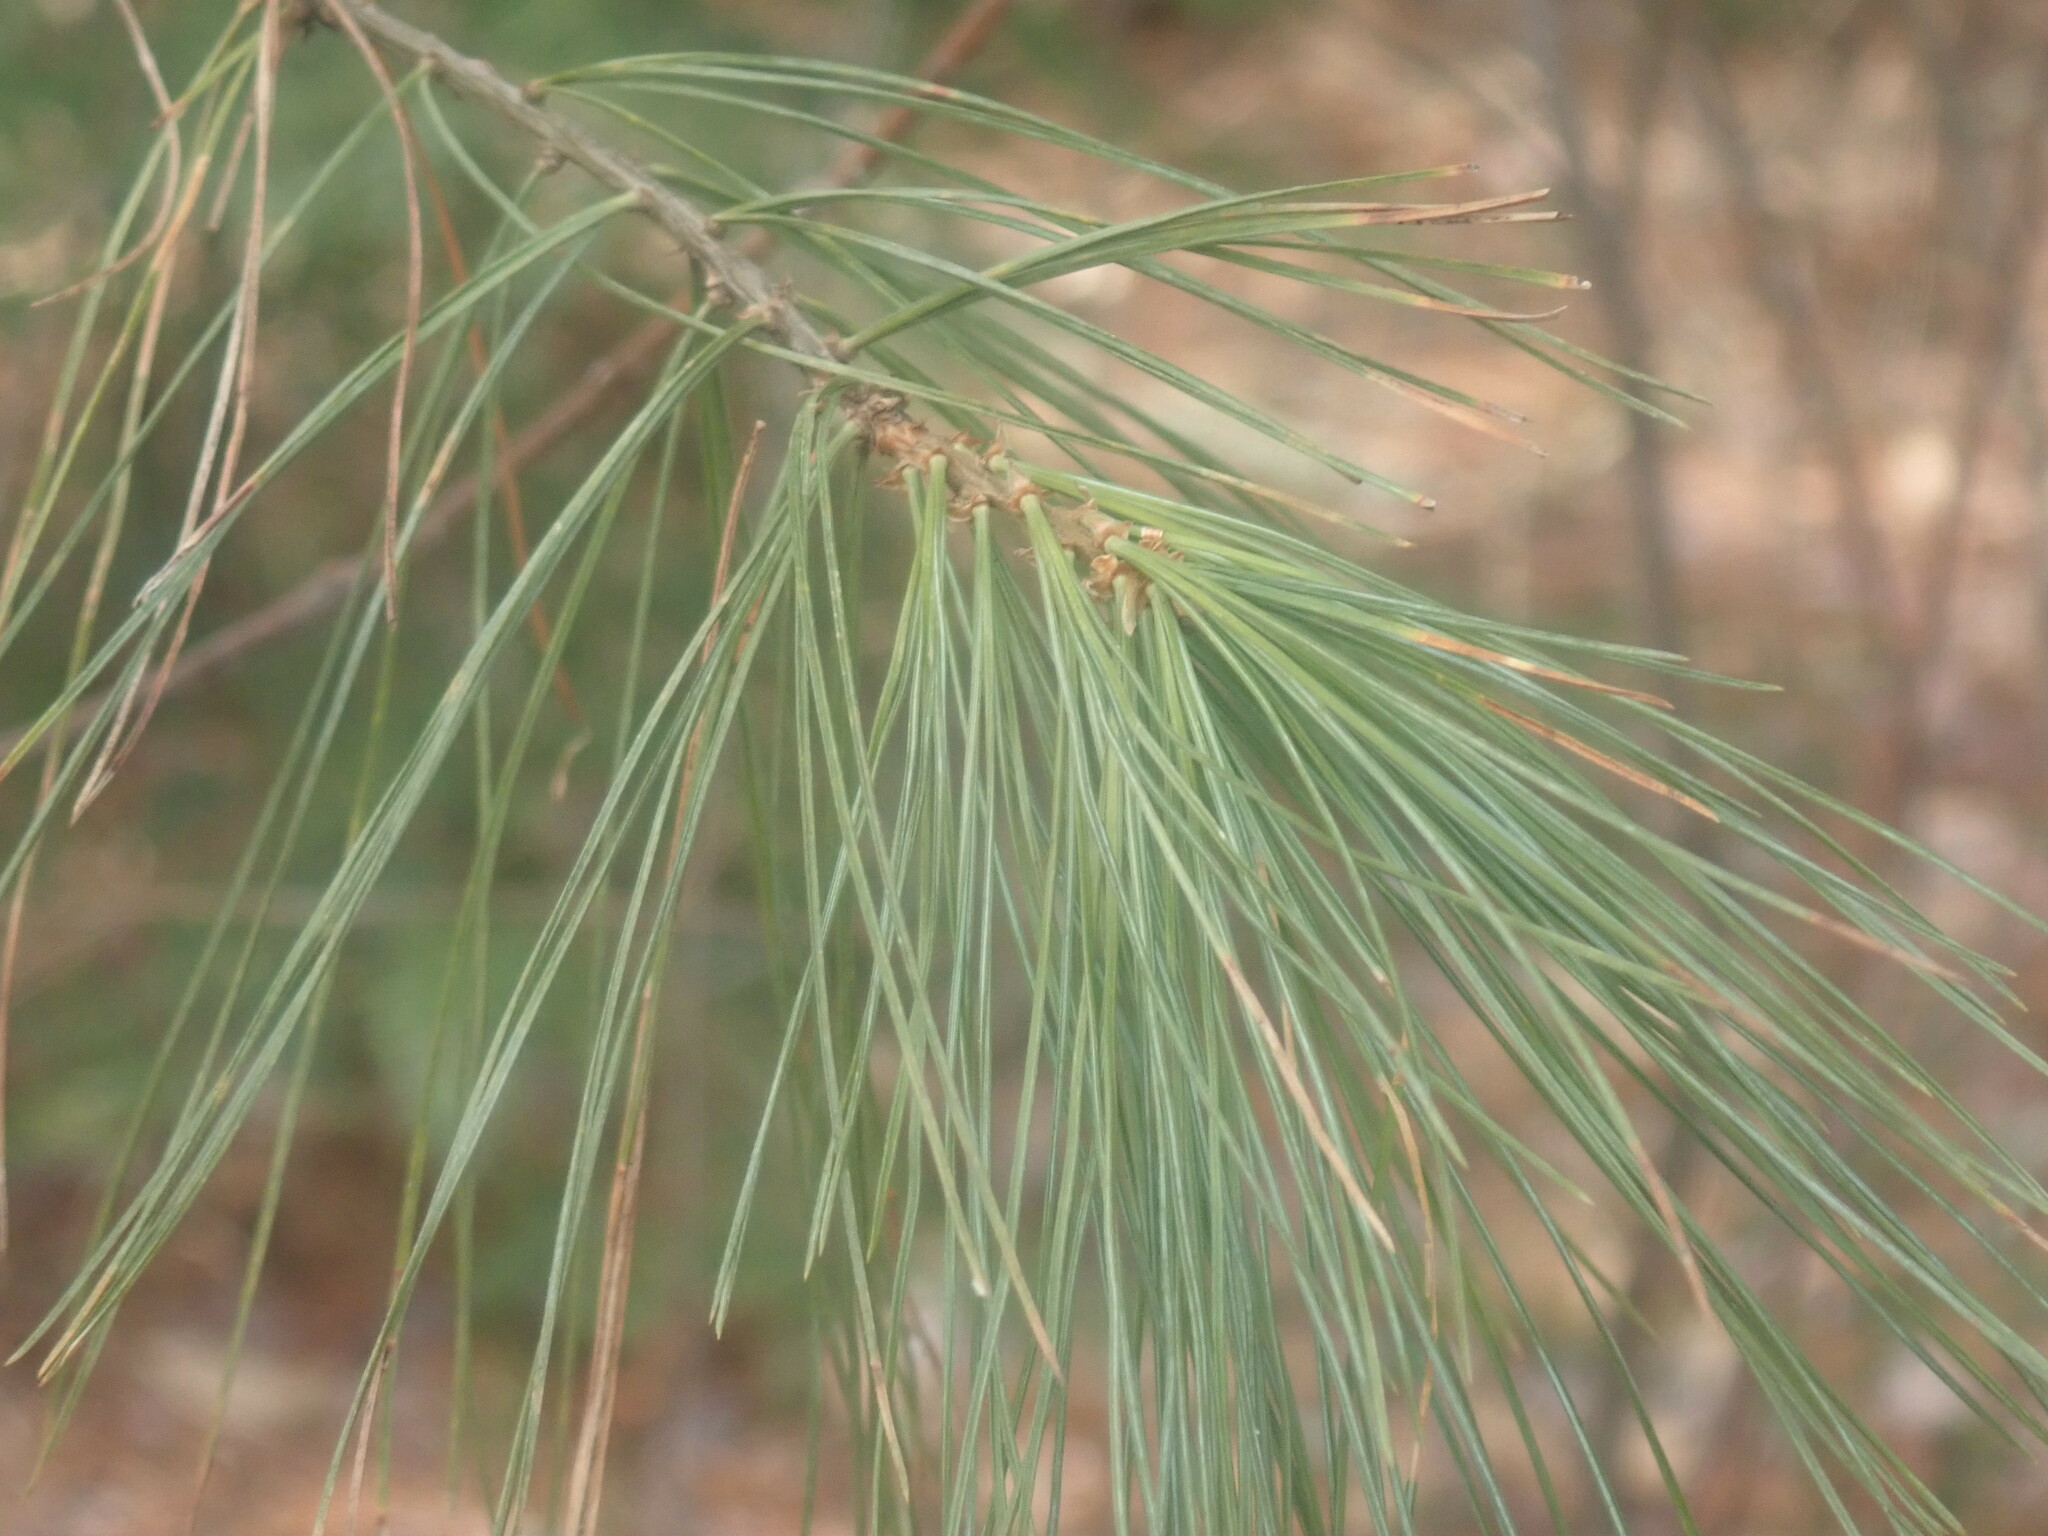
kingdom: Plantae
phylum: Tracheophyta
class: Pinopsida
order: Pinales
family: Pinaceae
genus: Pinus
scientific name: Pinus strobus
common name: Weymouth pine
